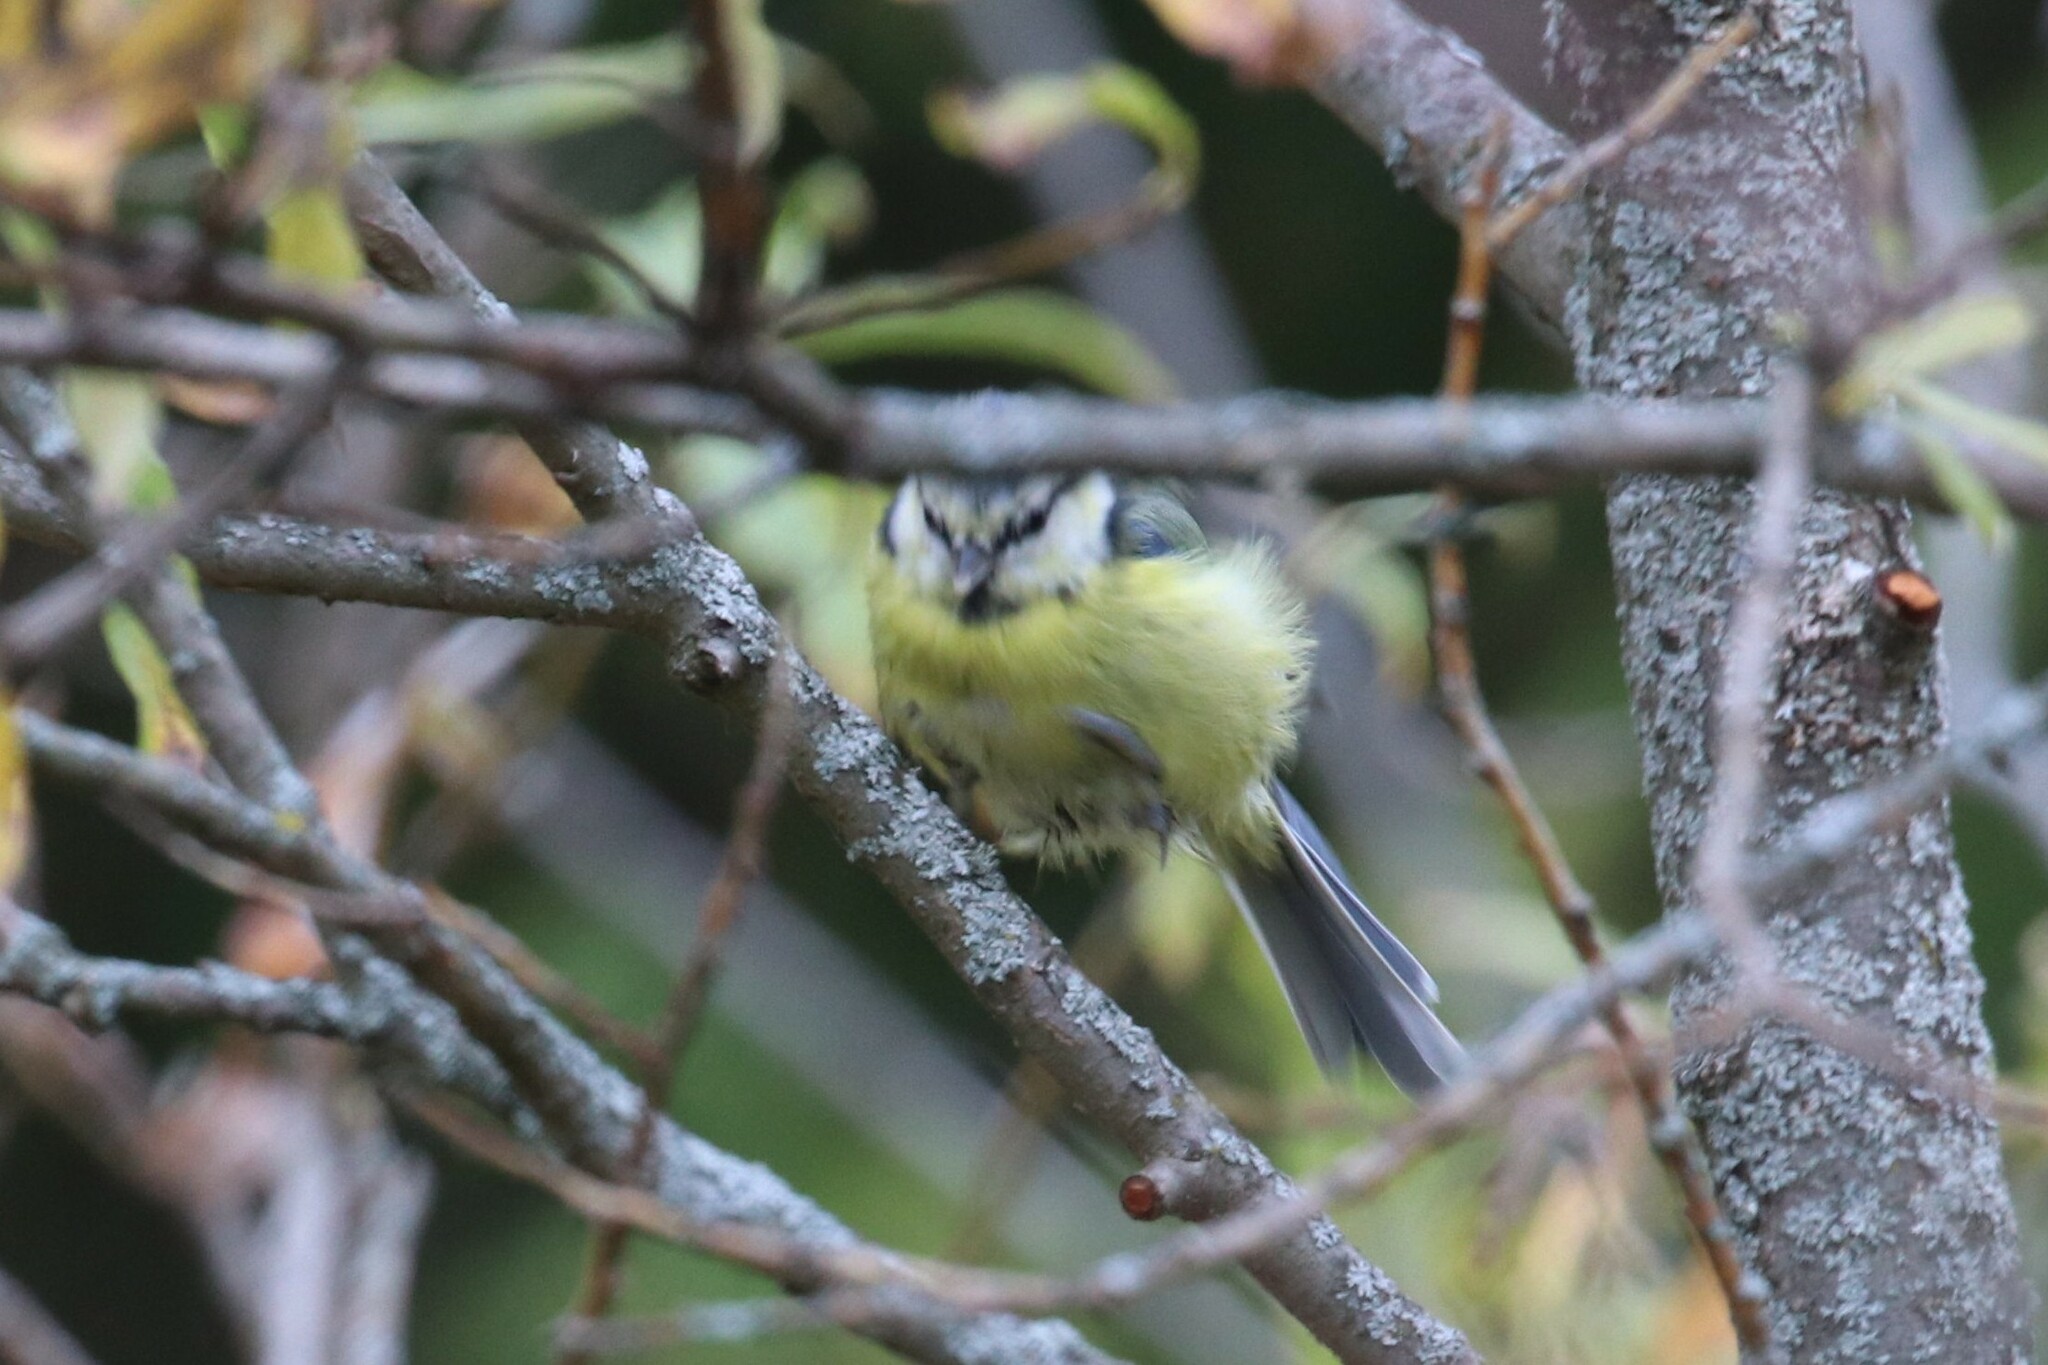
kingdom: Animalia
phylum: Chordata
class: Aves
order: Passeriformes
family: Paridae
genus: Cyanistes
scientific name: Cyanistes caeruleus
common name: Eurasian blue tit
